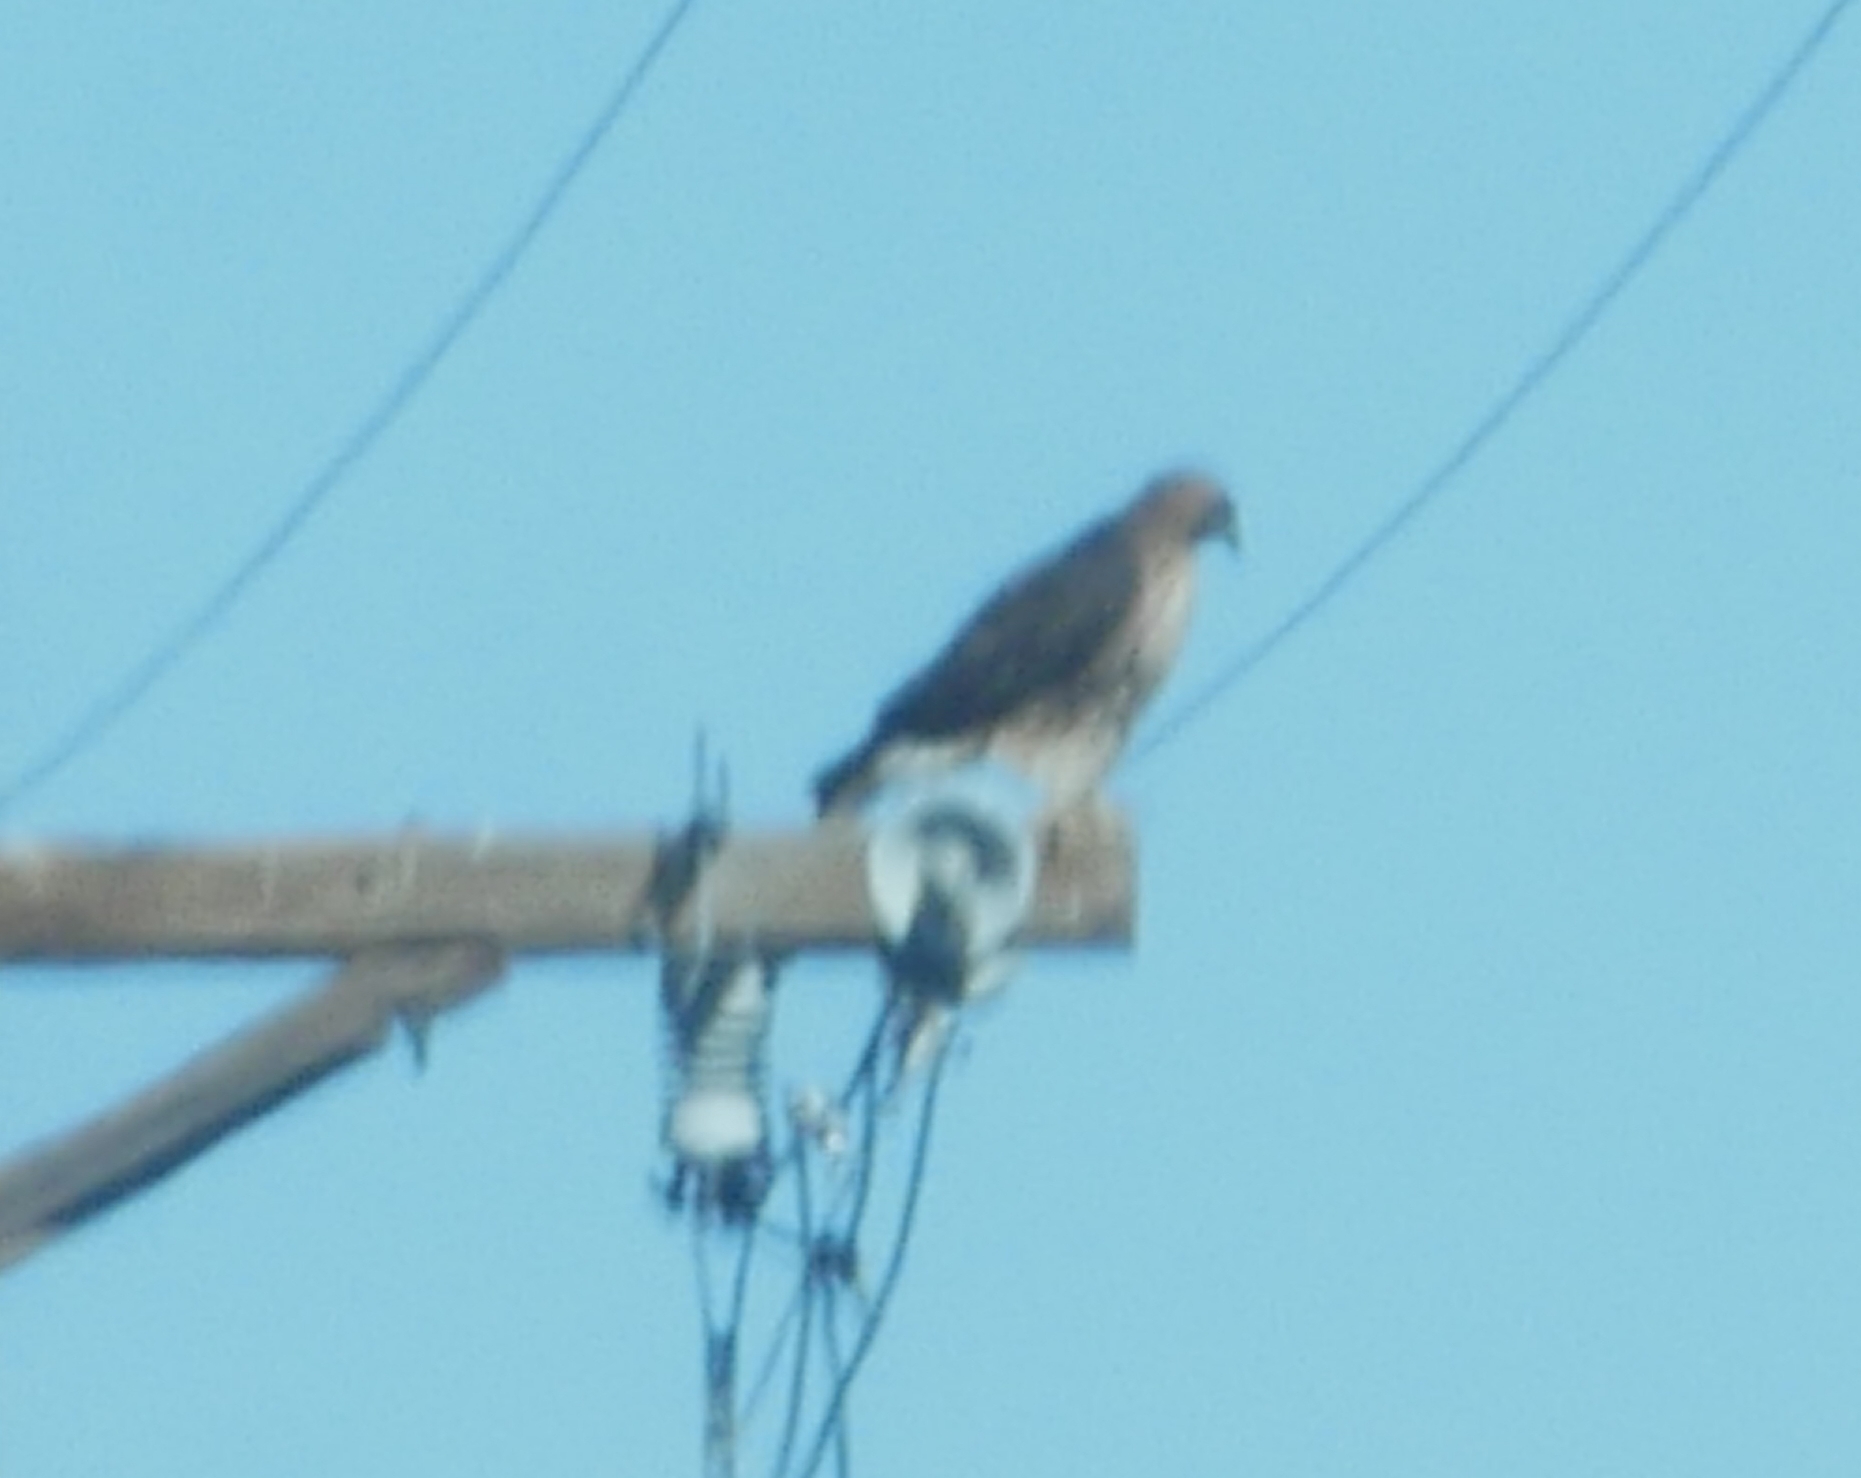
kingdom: Animalia
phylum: Chordata
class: Aves
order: Accipitriformes
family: Accipitridae
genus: Buteo
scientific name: Buteo jamaicensis
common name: Red-tailed hawk
